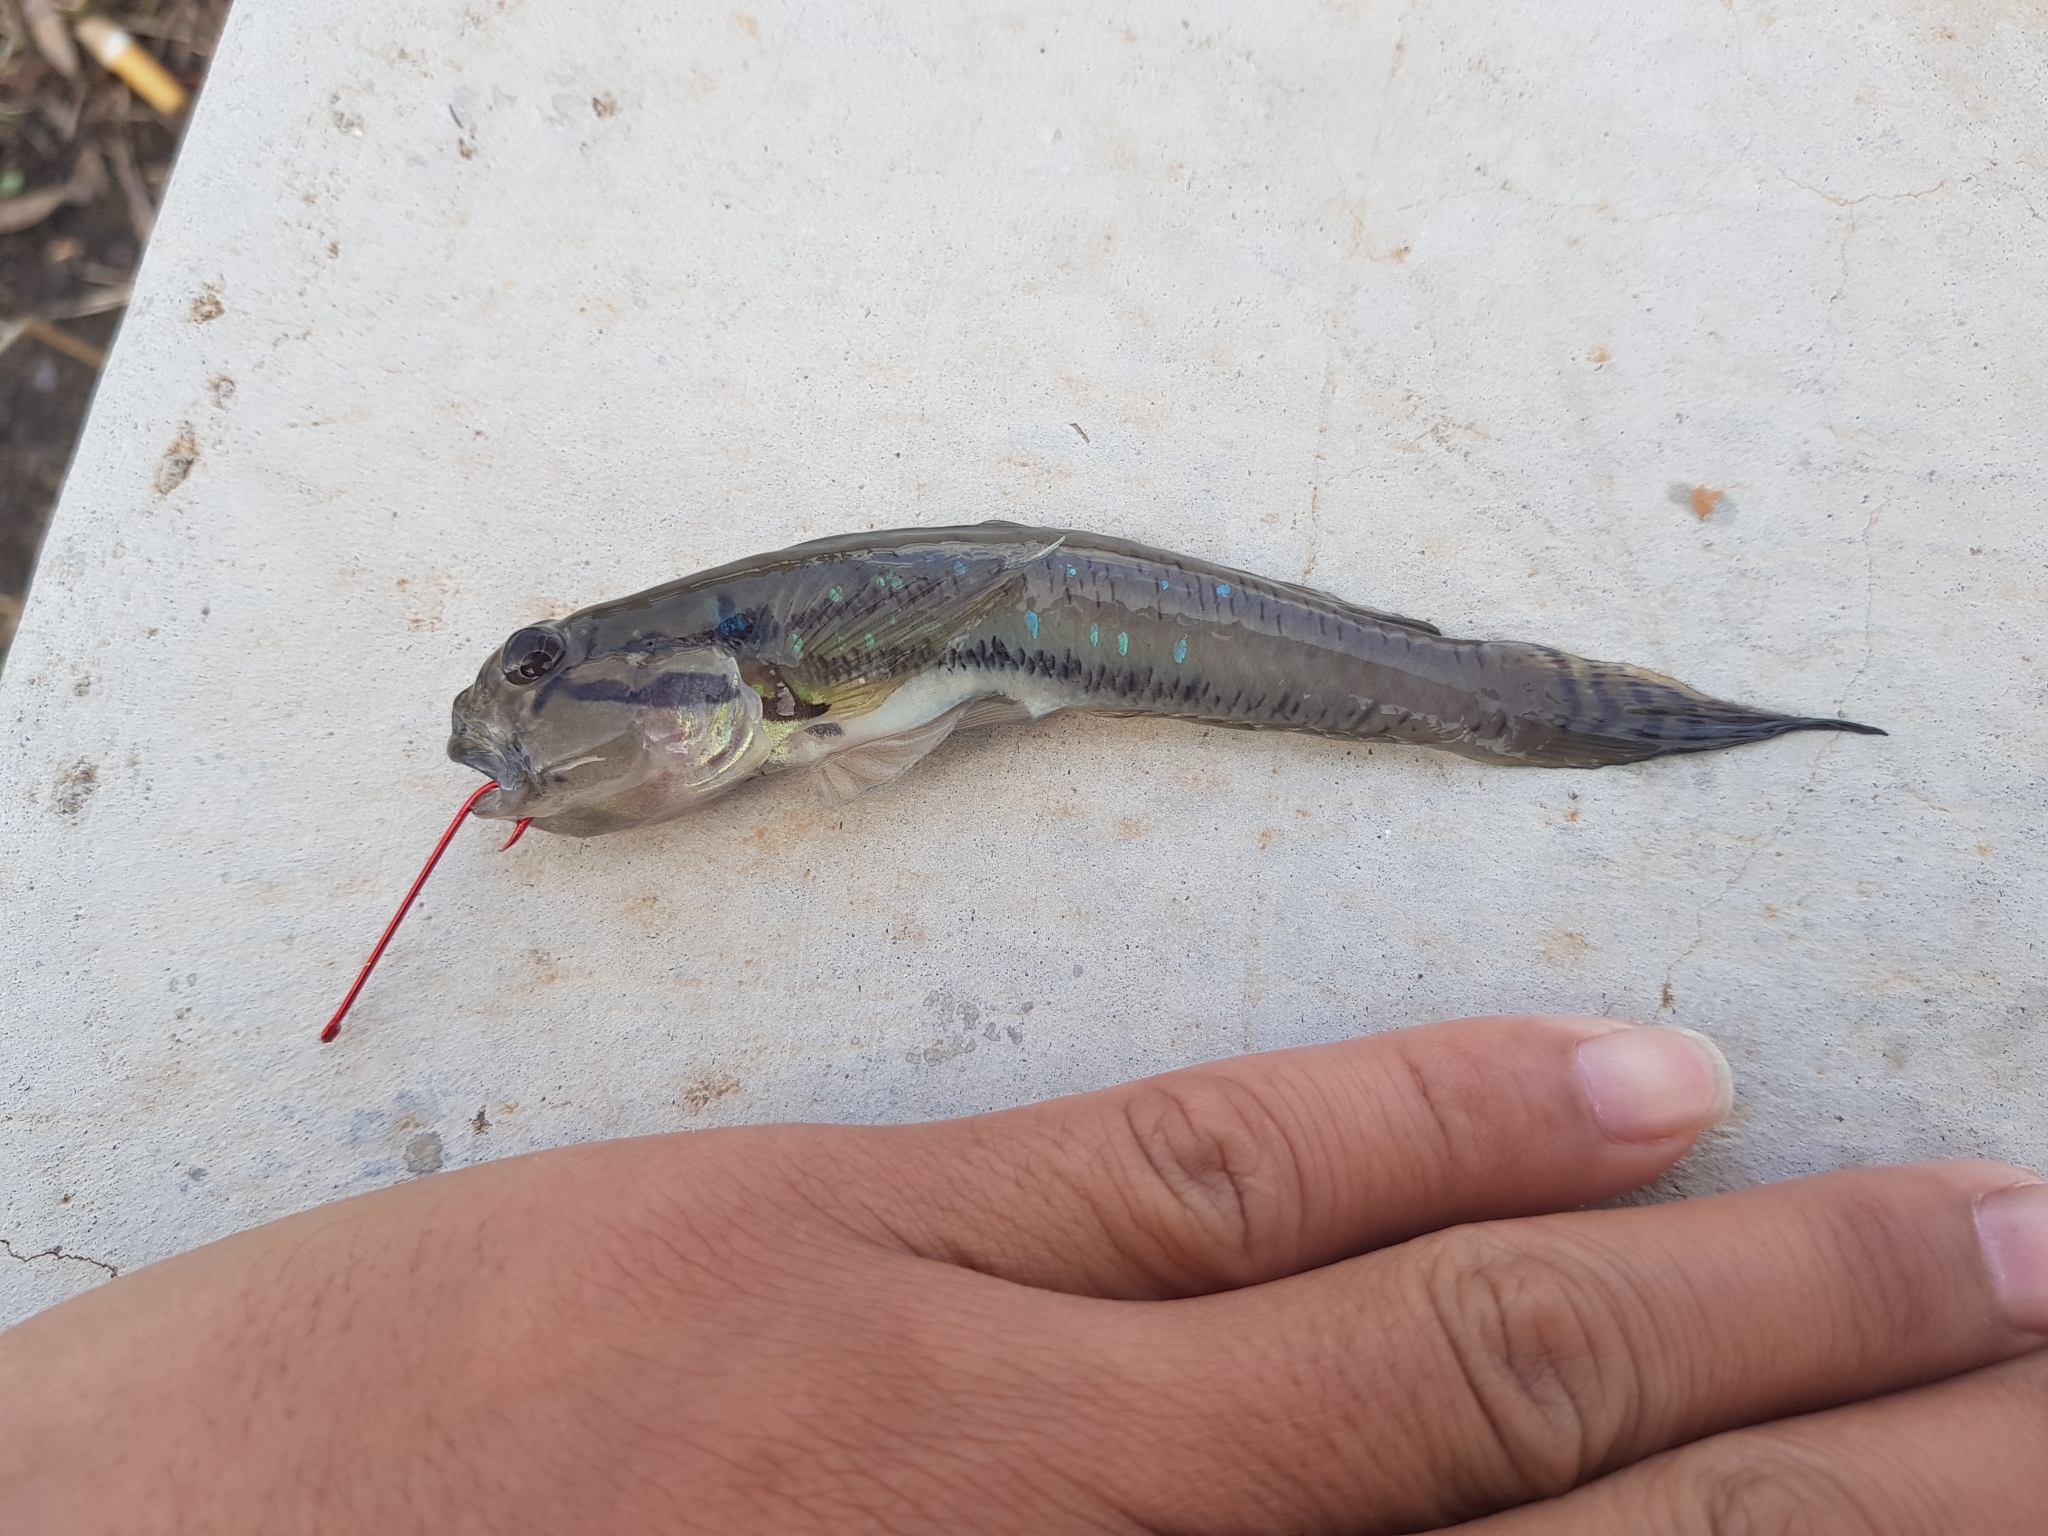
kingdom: Animalia
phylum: Chordata
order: Perciformes
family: Gobiidae
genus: Arenigobius
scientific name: Arenigobius bifrenatus
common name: Bridled goby
